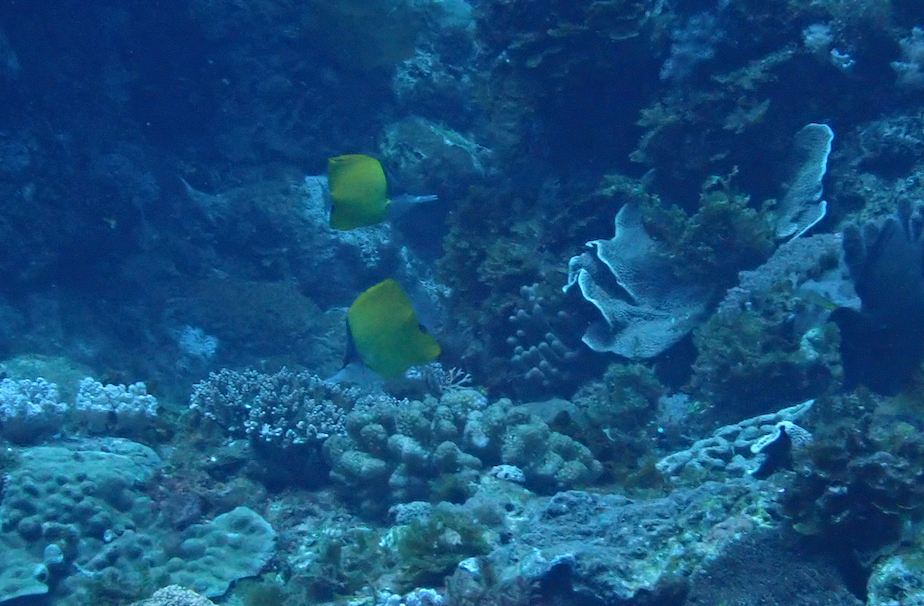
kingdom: Animalia
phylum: Chordata
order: Perciformes
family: Chaetodontidae
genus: Forcipiger
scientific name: Forcipiger flavissimus
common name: Forcepsfish
